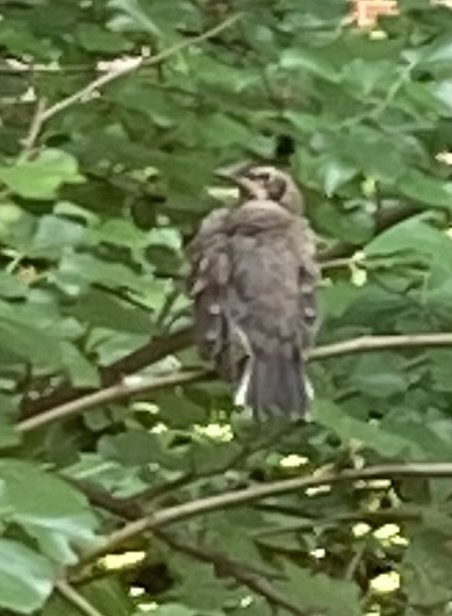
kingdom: Animalia
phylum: Chordata
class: Aves
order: Passeriformes
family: Turdidae
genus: Turdus
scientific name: Turdus migratorius
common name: American robin
